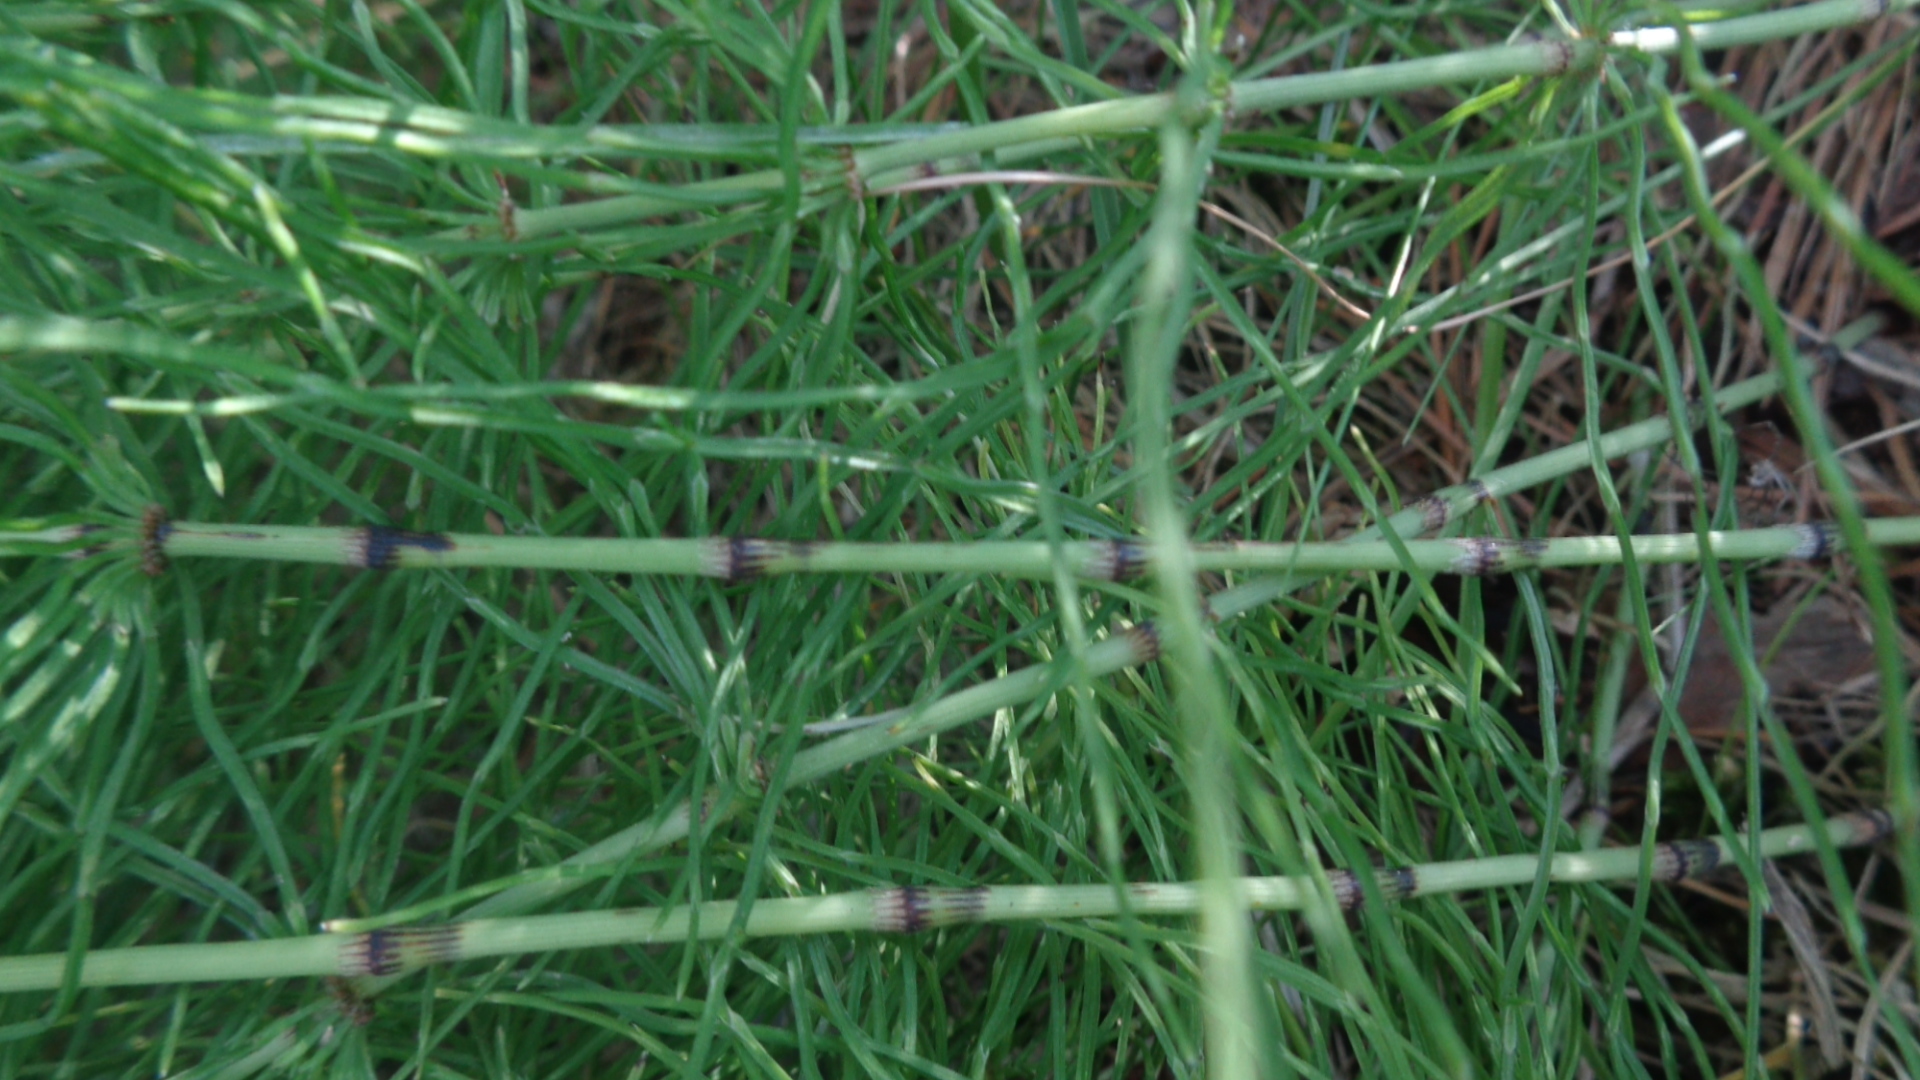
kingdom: Plantae
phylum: Tracheophyta
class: Polypodiopsida
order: Equisetales
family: Equisetaceae
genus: Equisetum
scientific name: Equisetum pratense
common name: Meadow horsetail
